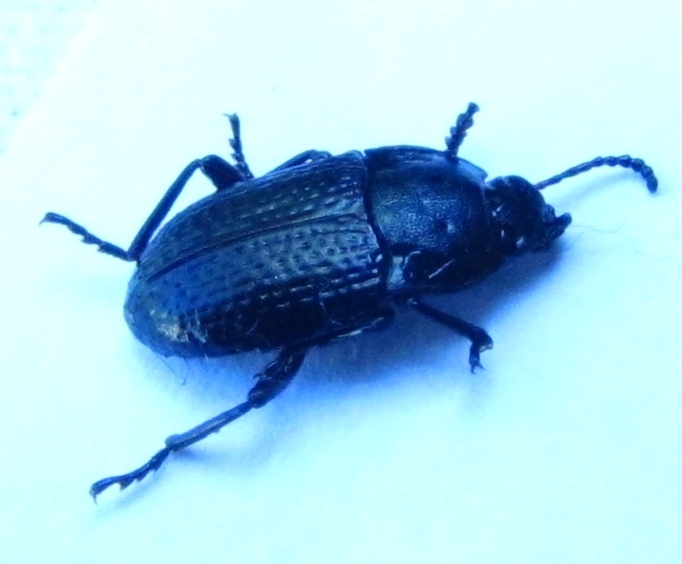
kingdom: Animalia
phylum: Arthropoda
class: Insecta
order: Coleoptera
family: Tenebrionidae
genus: Asiopus
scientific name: Asiopus
